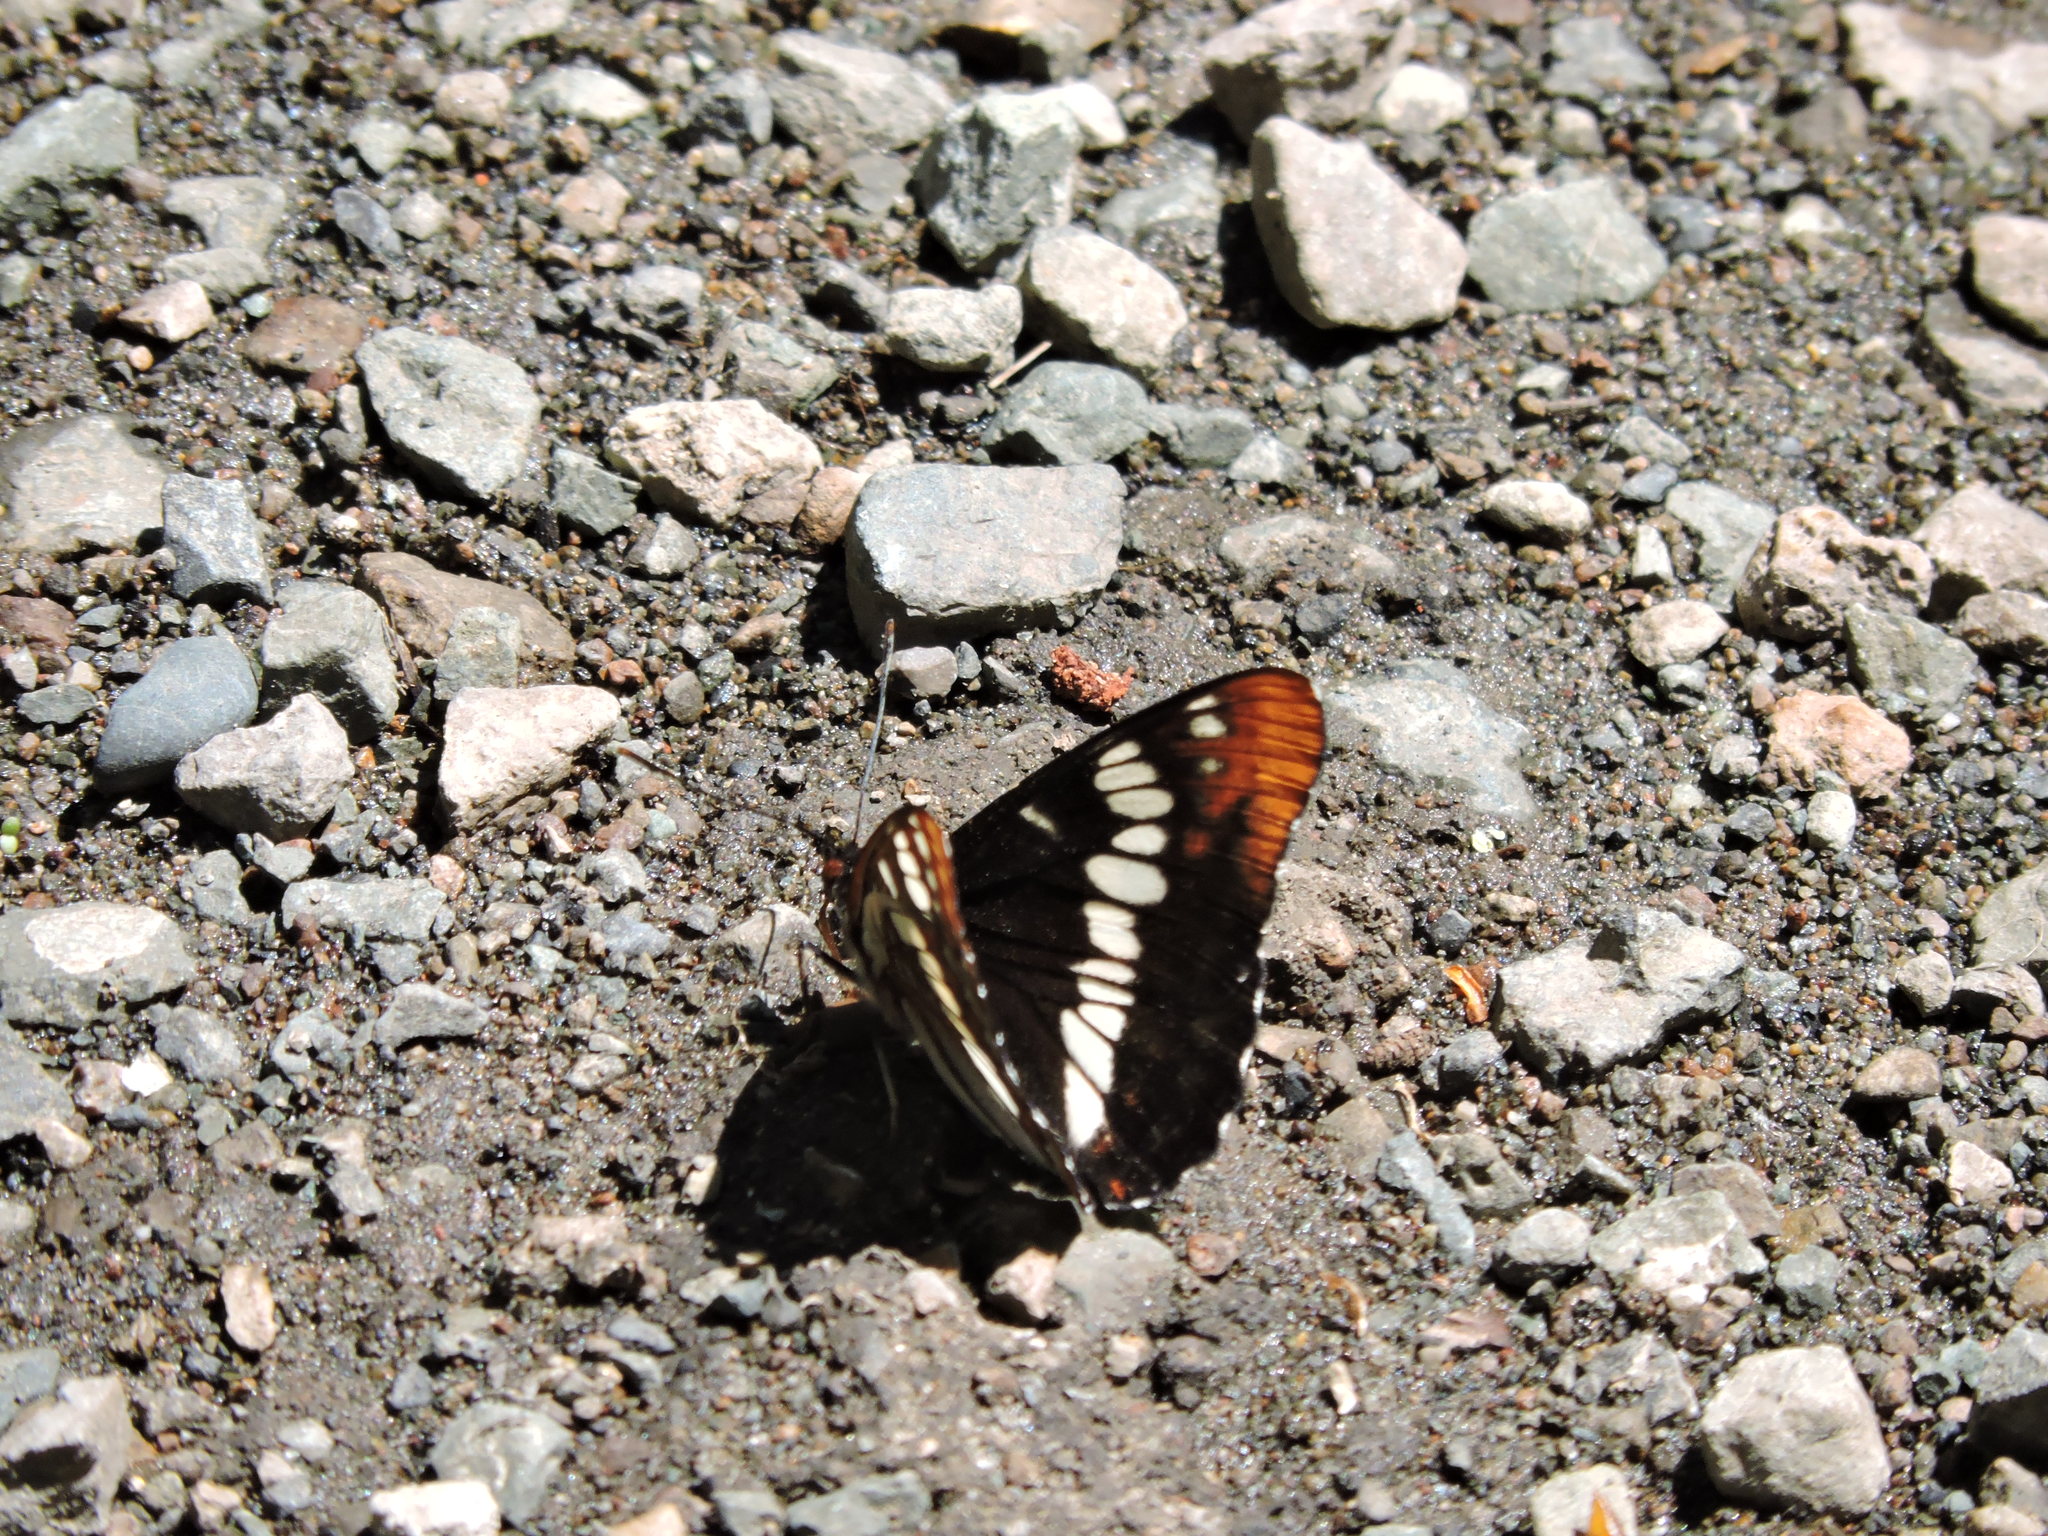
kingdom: Animalia
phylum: Arthropoda
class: Insecta
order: Lepidoptera
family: Nymphalidae
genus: Limenitis
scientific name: Limenitis lorquini
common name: Lorquin's admiral
